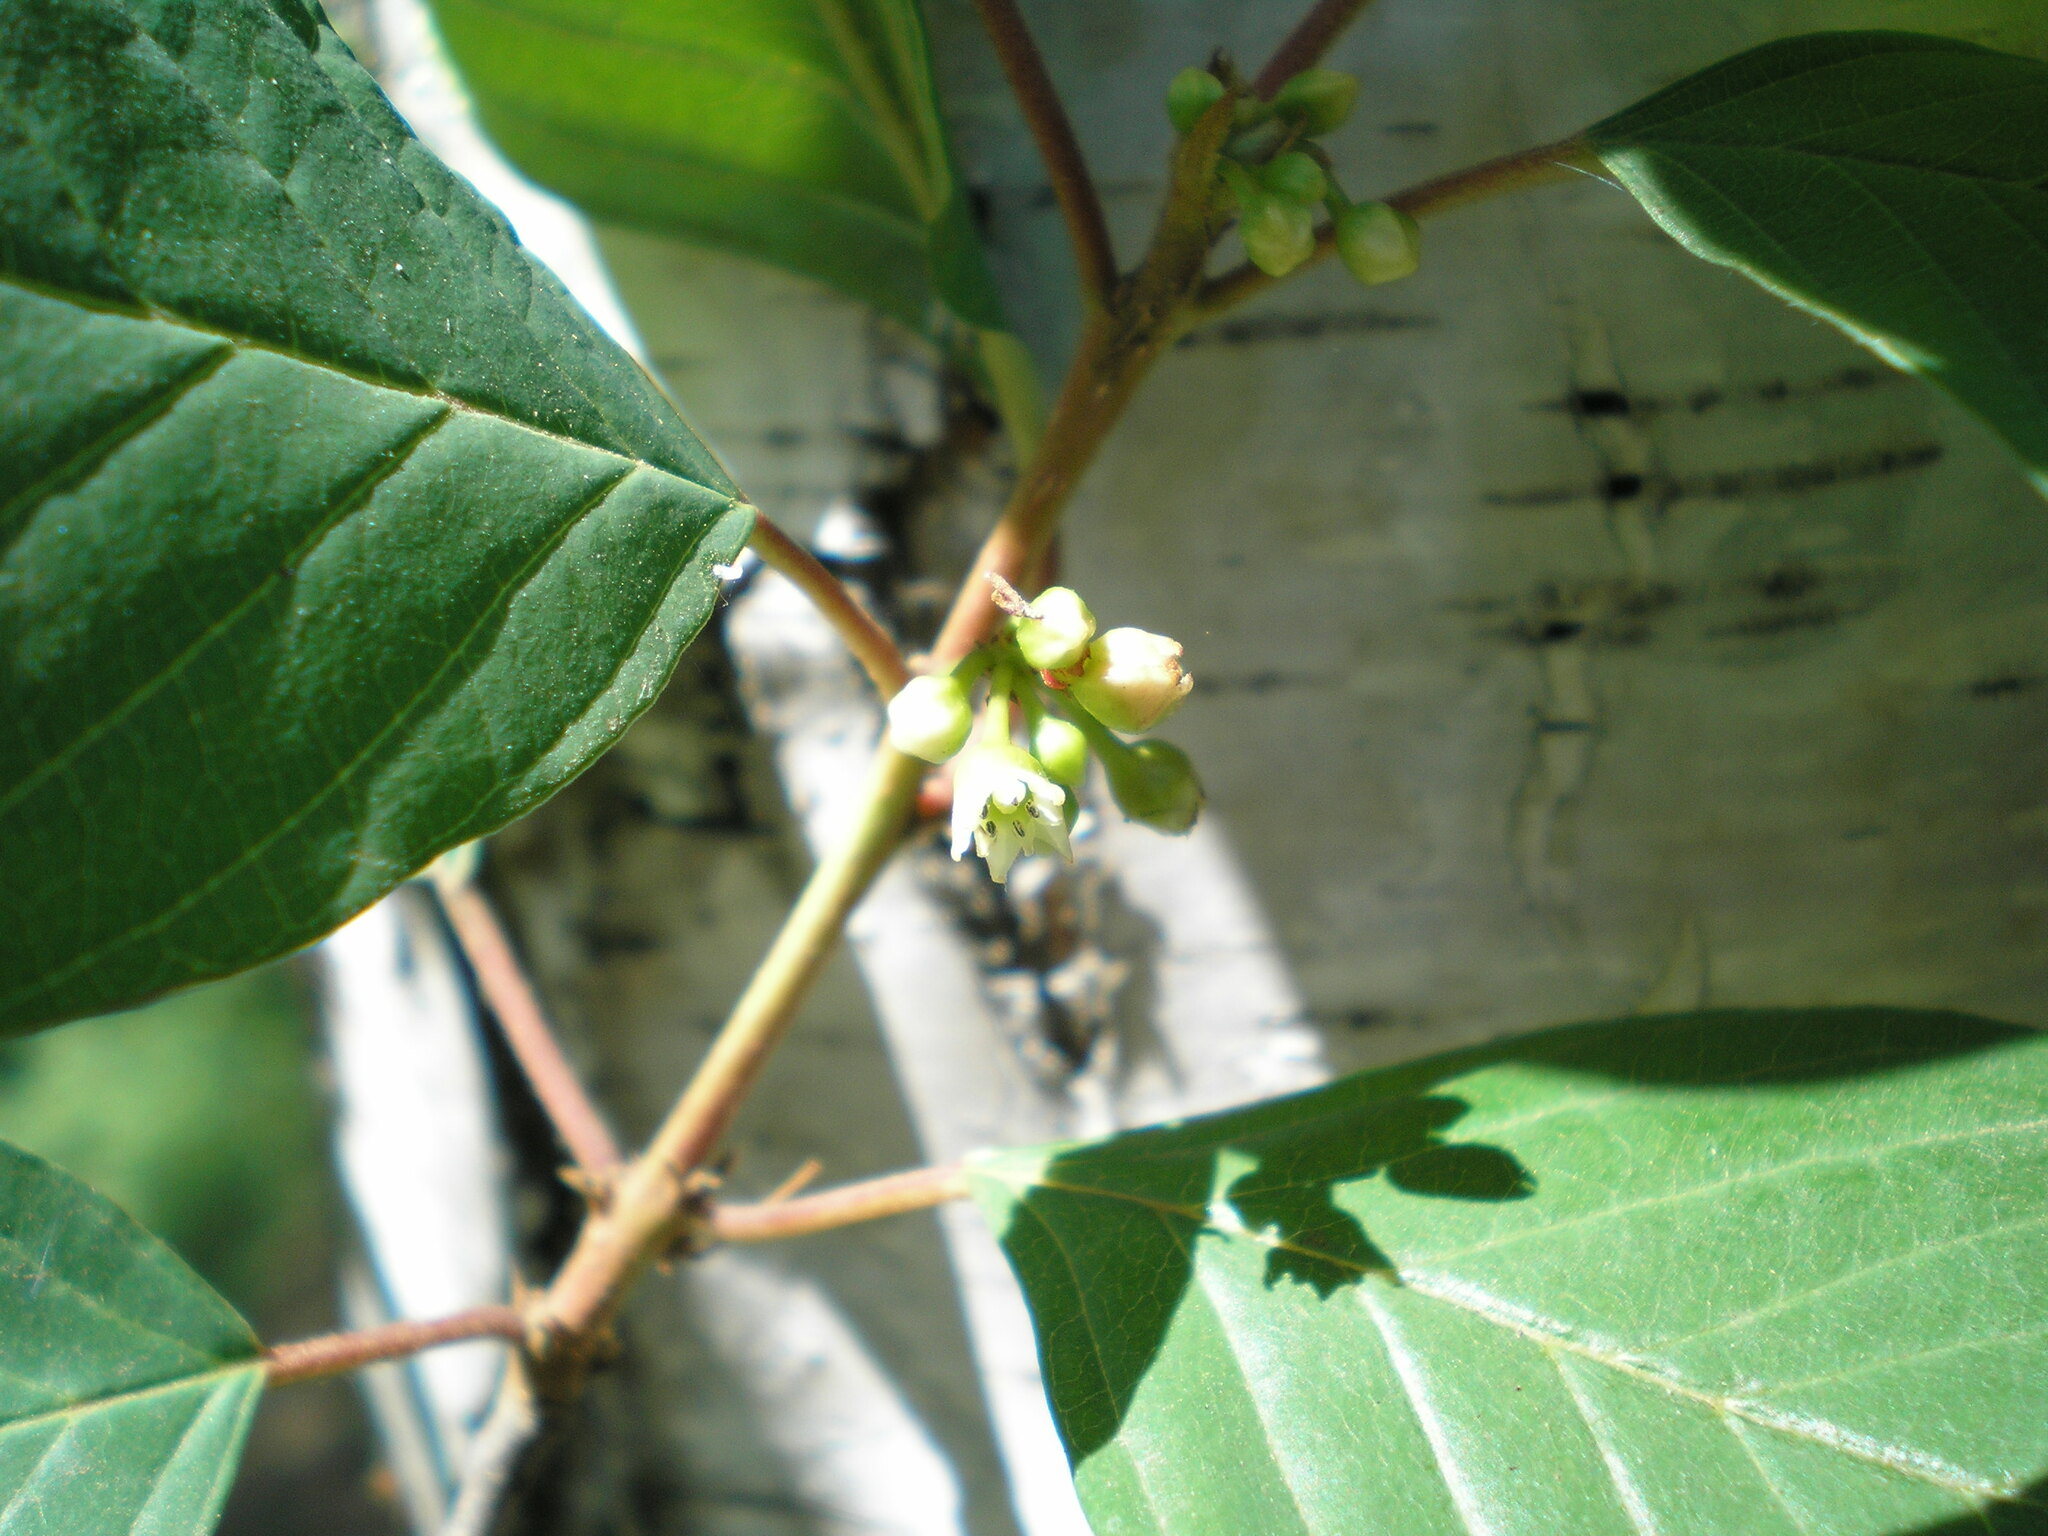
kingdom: Plantae
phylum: Tracheophyta
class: Magnoliopsida
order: Rosales
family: Rhamnaceae
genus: Frangula
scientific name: Frangula alnus
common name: Alder buckthorn
